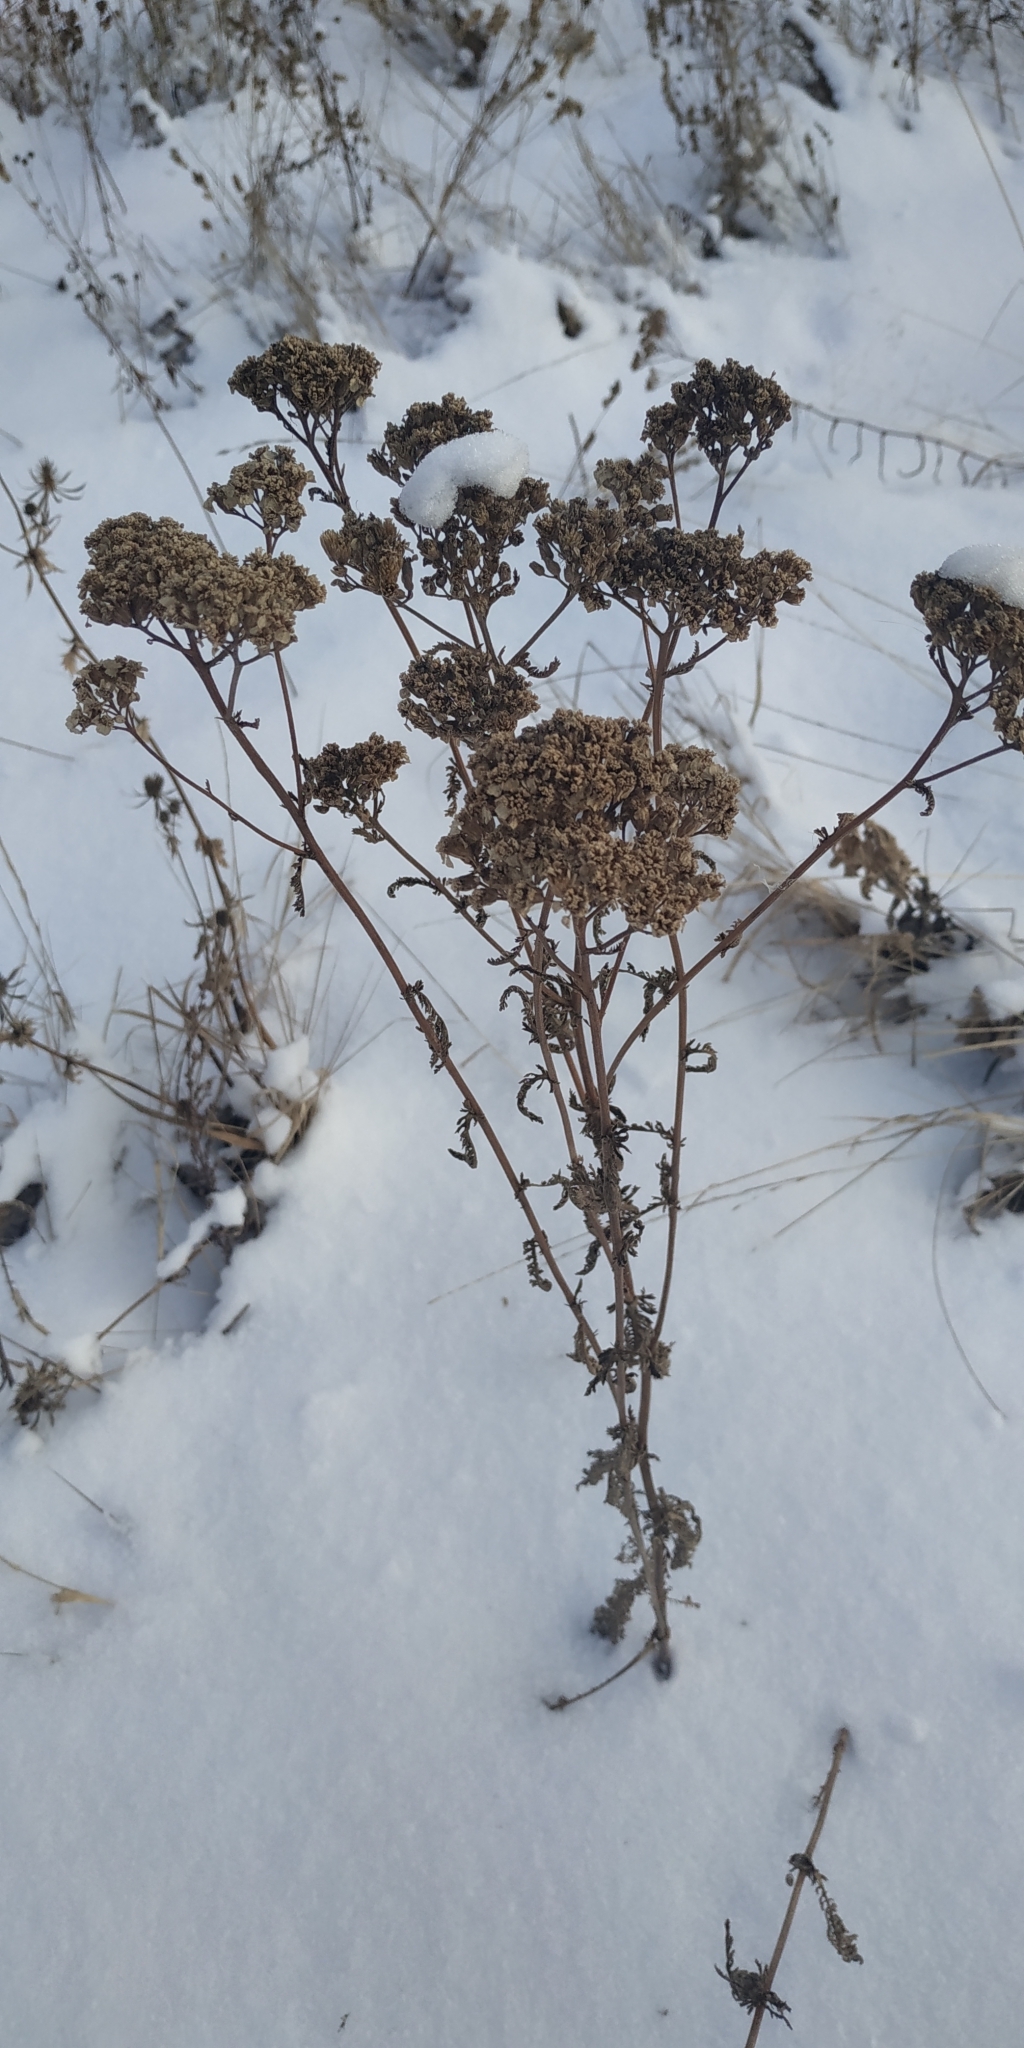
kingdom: Plantae
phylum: Tracheophyta
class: Magnoliopsida
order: Asterales
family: Asteraceae
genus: Achillea
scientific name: Achillea millefolium
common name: Yarrow
